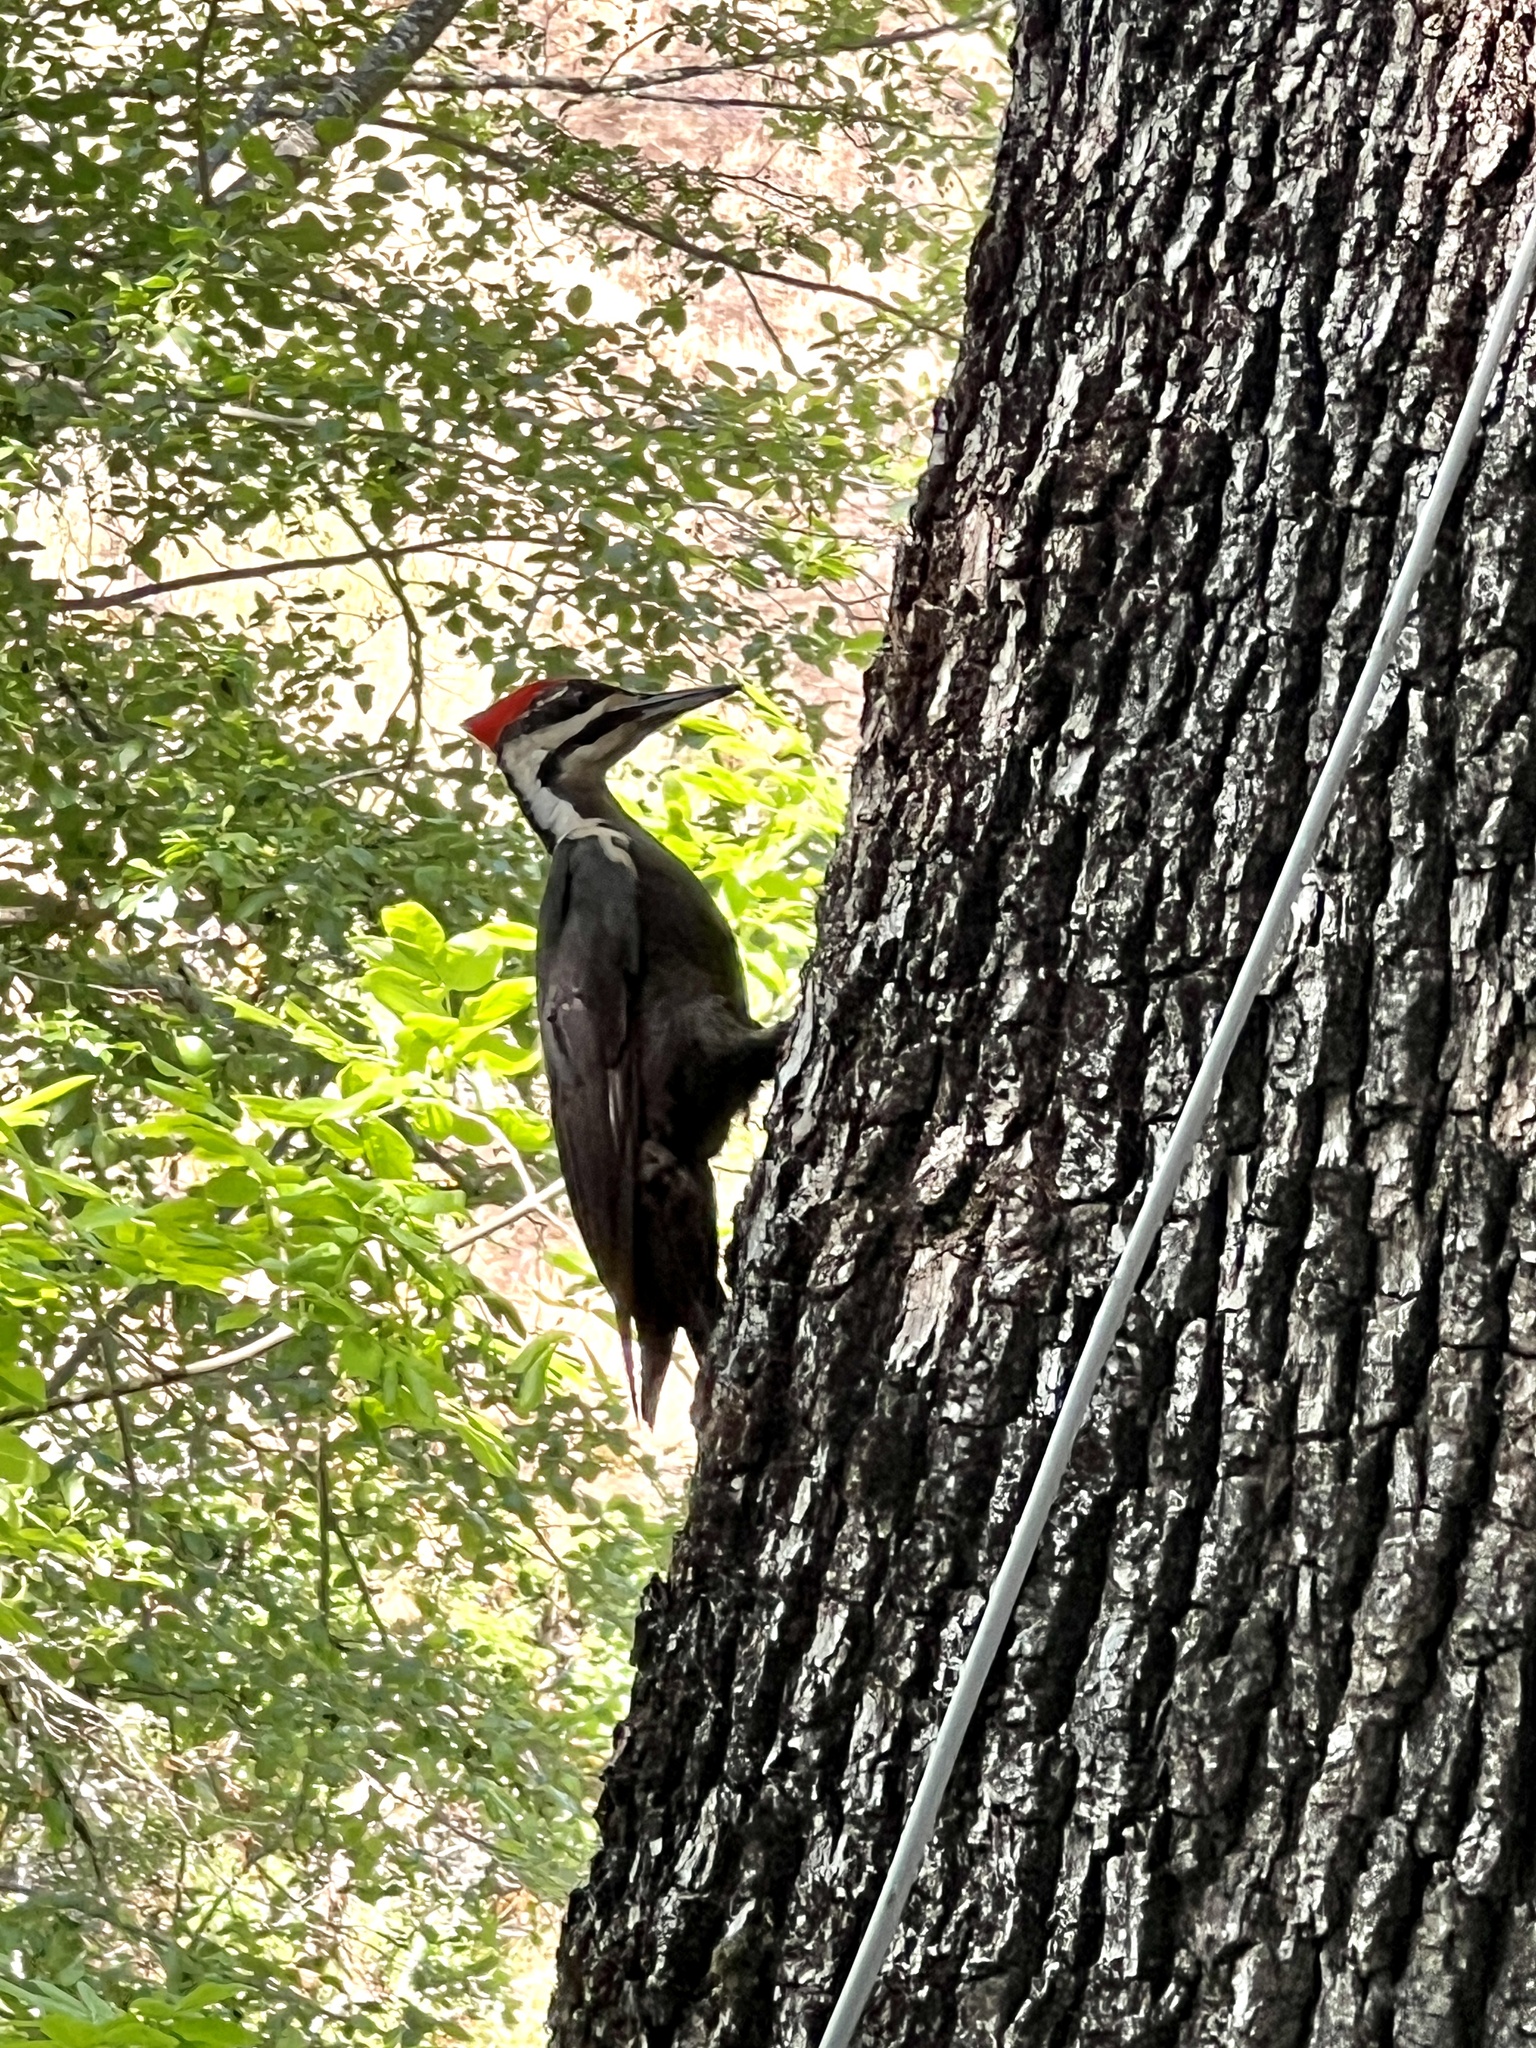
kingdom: Animalia
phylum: Chordata
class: Aves
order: Piciformes
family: Picidae
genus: Dryocopus
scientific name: Dryocopus pileatus
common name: Pileated woodpecker
